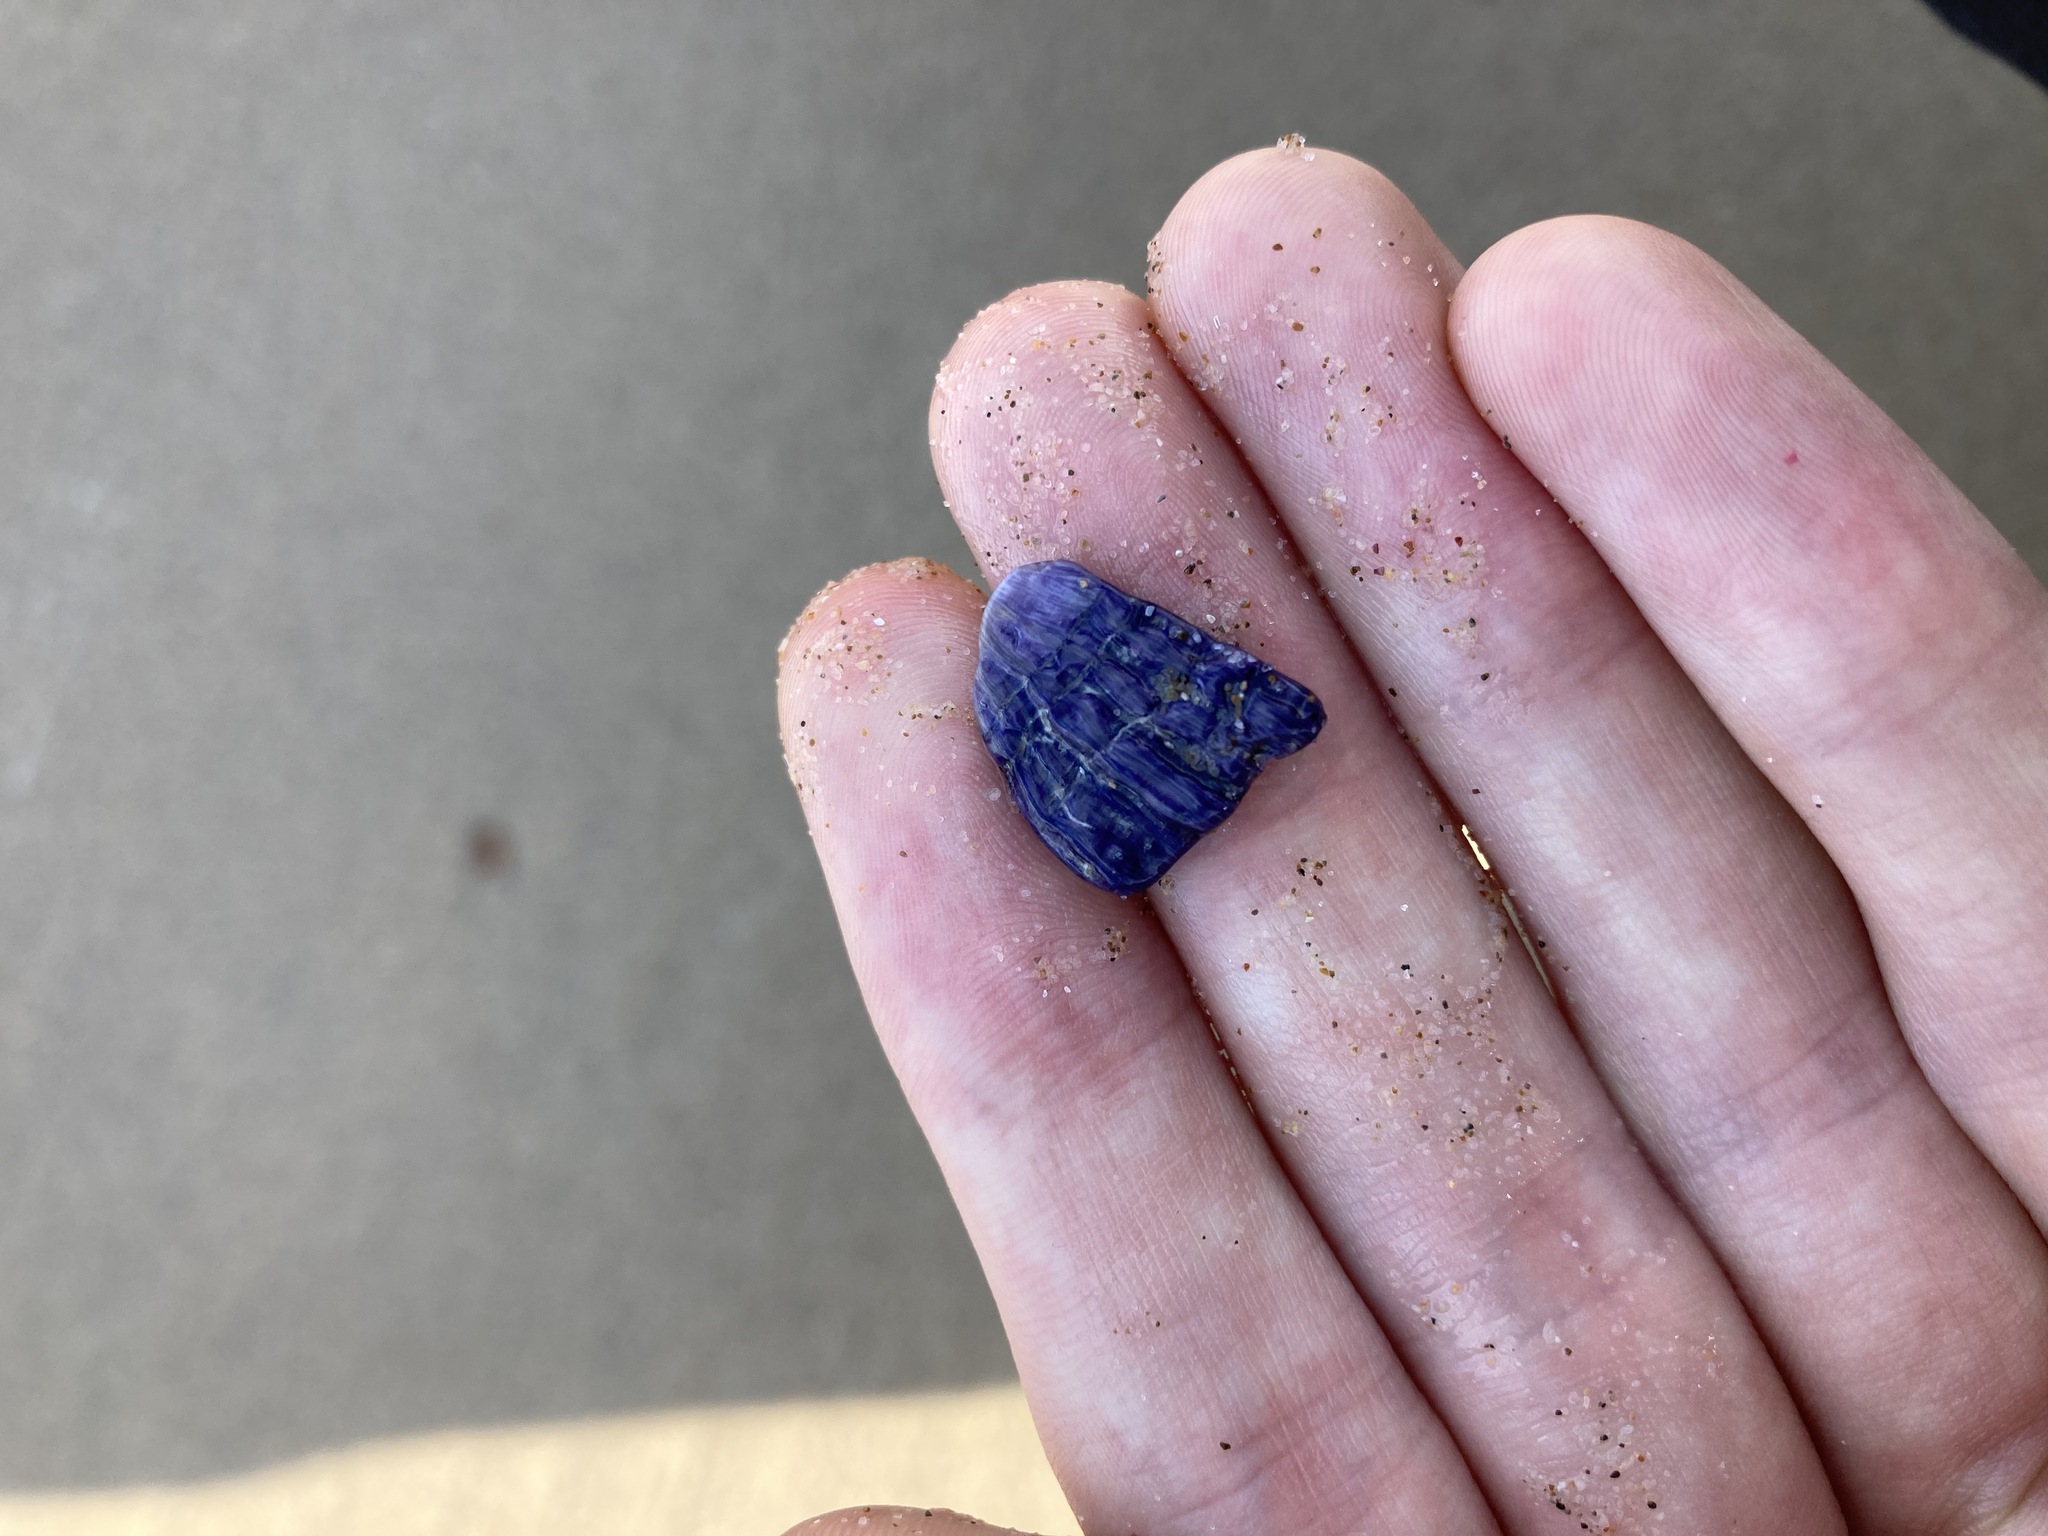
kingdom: Animalia
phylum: Arthropoda
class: Maxillopoda
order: Sessilia
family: Austrobalanidae
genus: Austrobalanus
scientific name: Austrobalanus imperator
